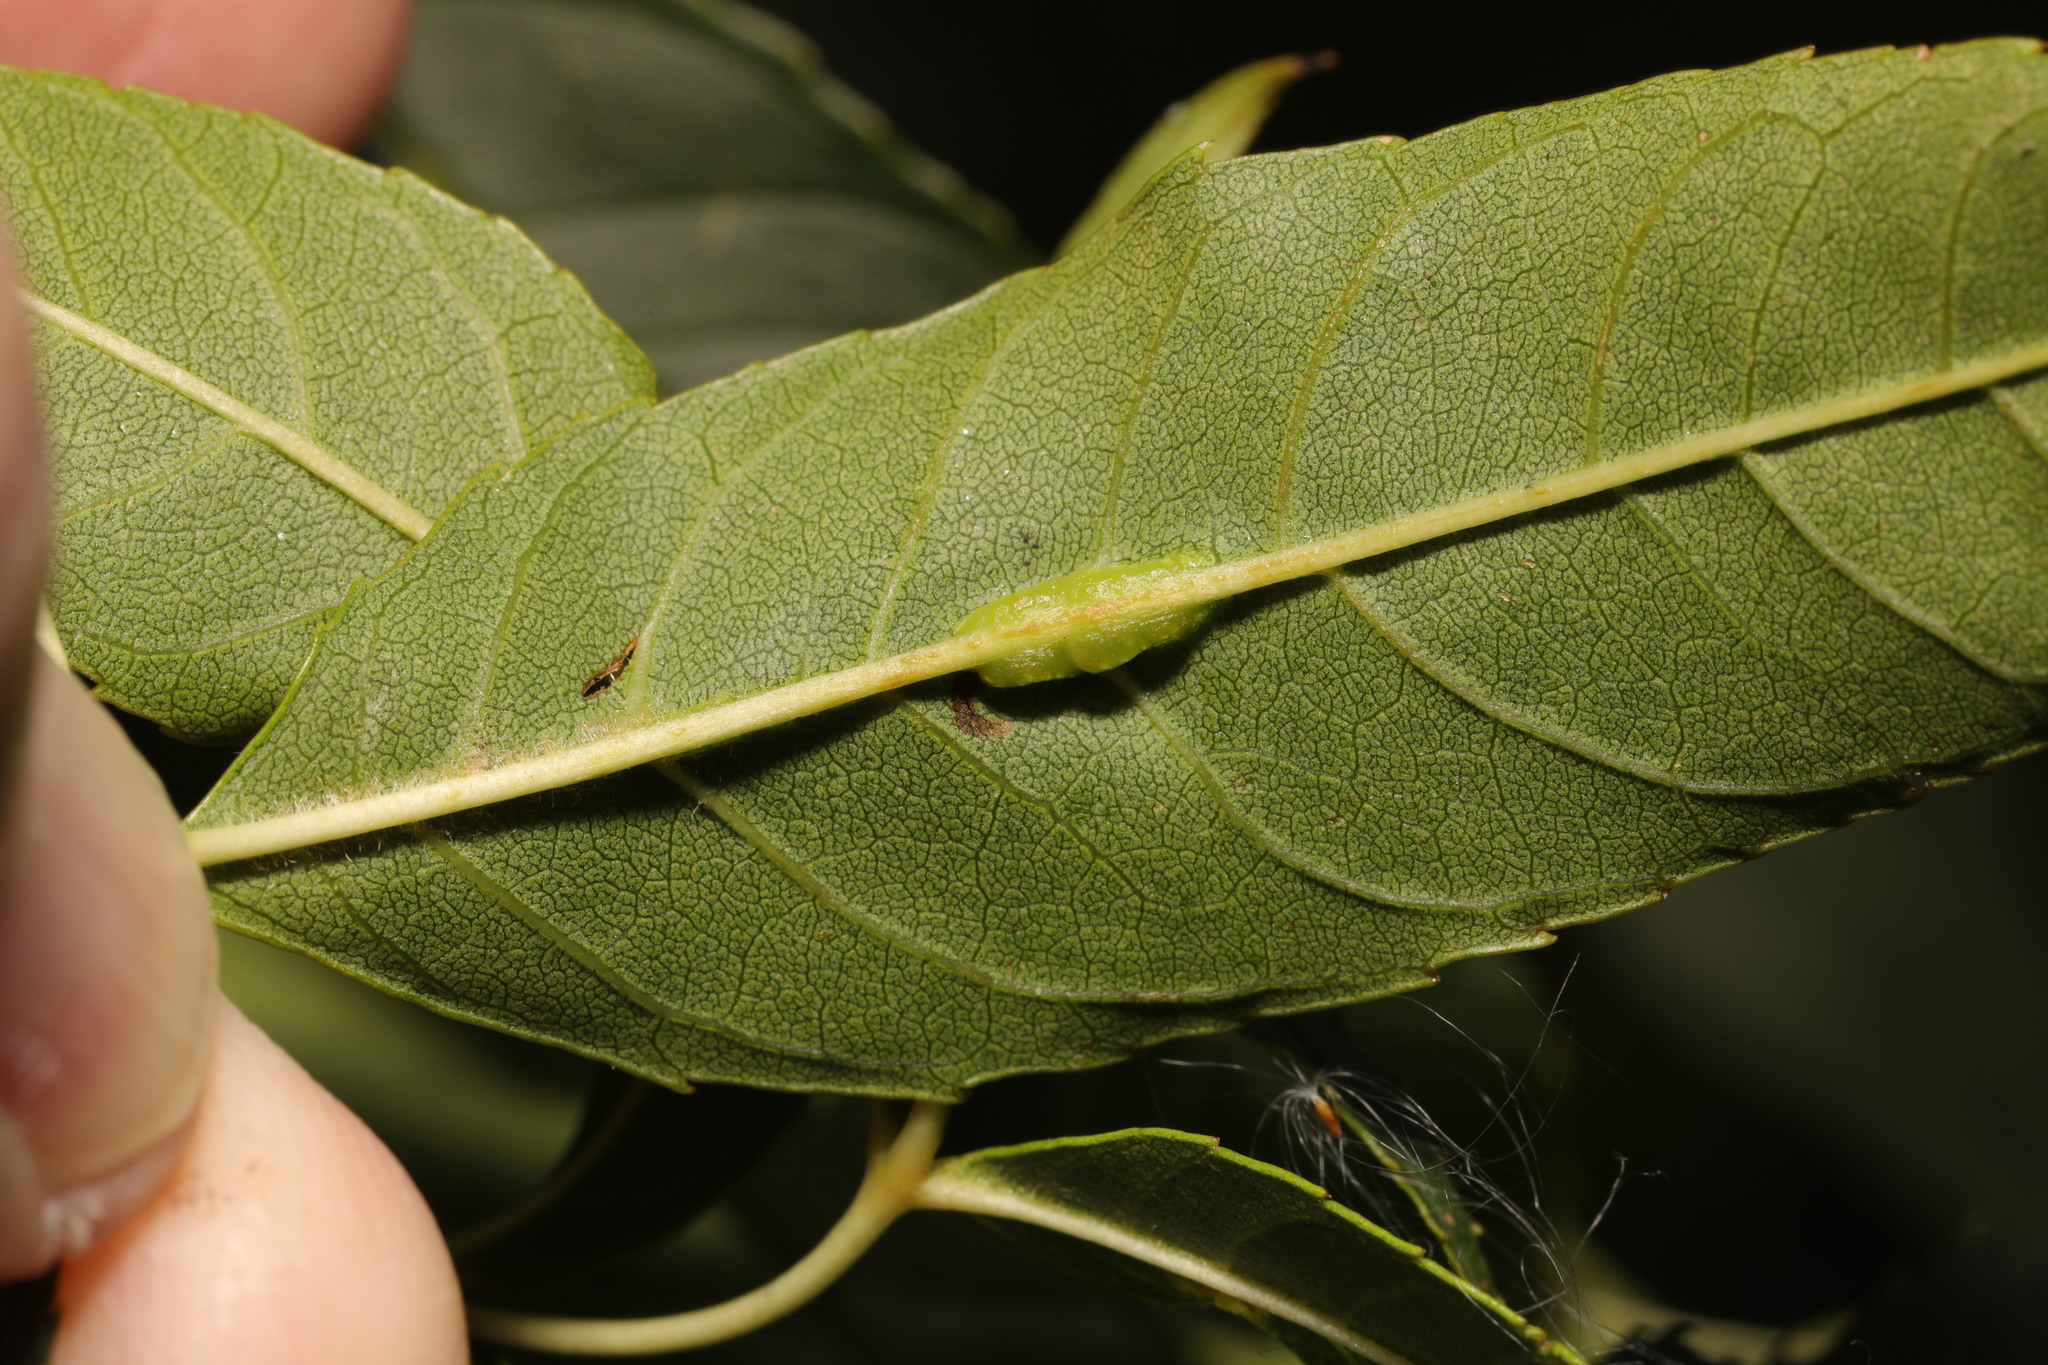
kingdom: Animalia
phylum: Arthropoda
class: Insecta
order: Diptera
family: Cecidomyiidae
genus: Dasineura
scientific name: Dasineura fraxini
